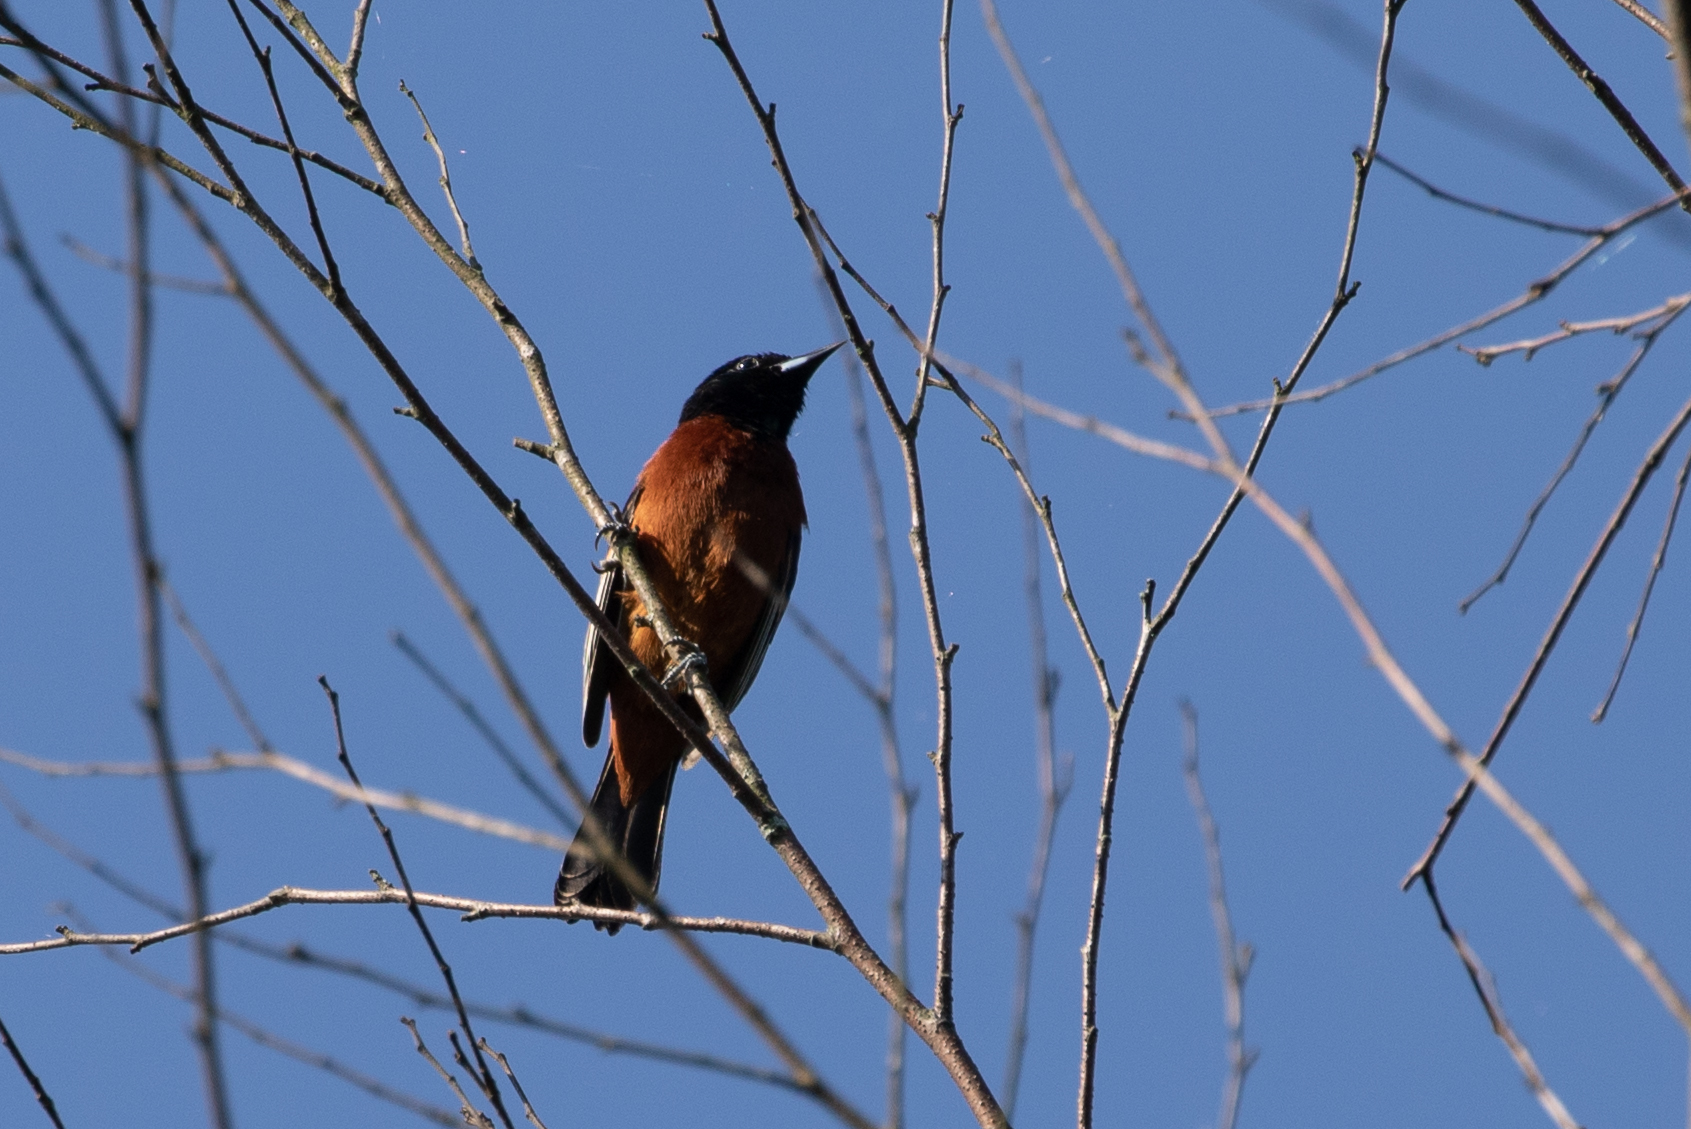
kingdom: Animalia
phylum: Chordata
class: Aves
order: Passeriformes
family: Icteridae
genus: Icterus
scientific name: Icterus spurius
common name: Orchard oriole
